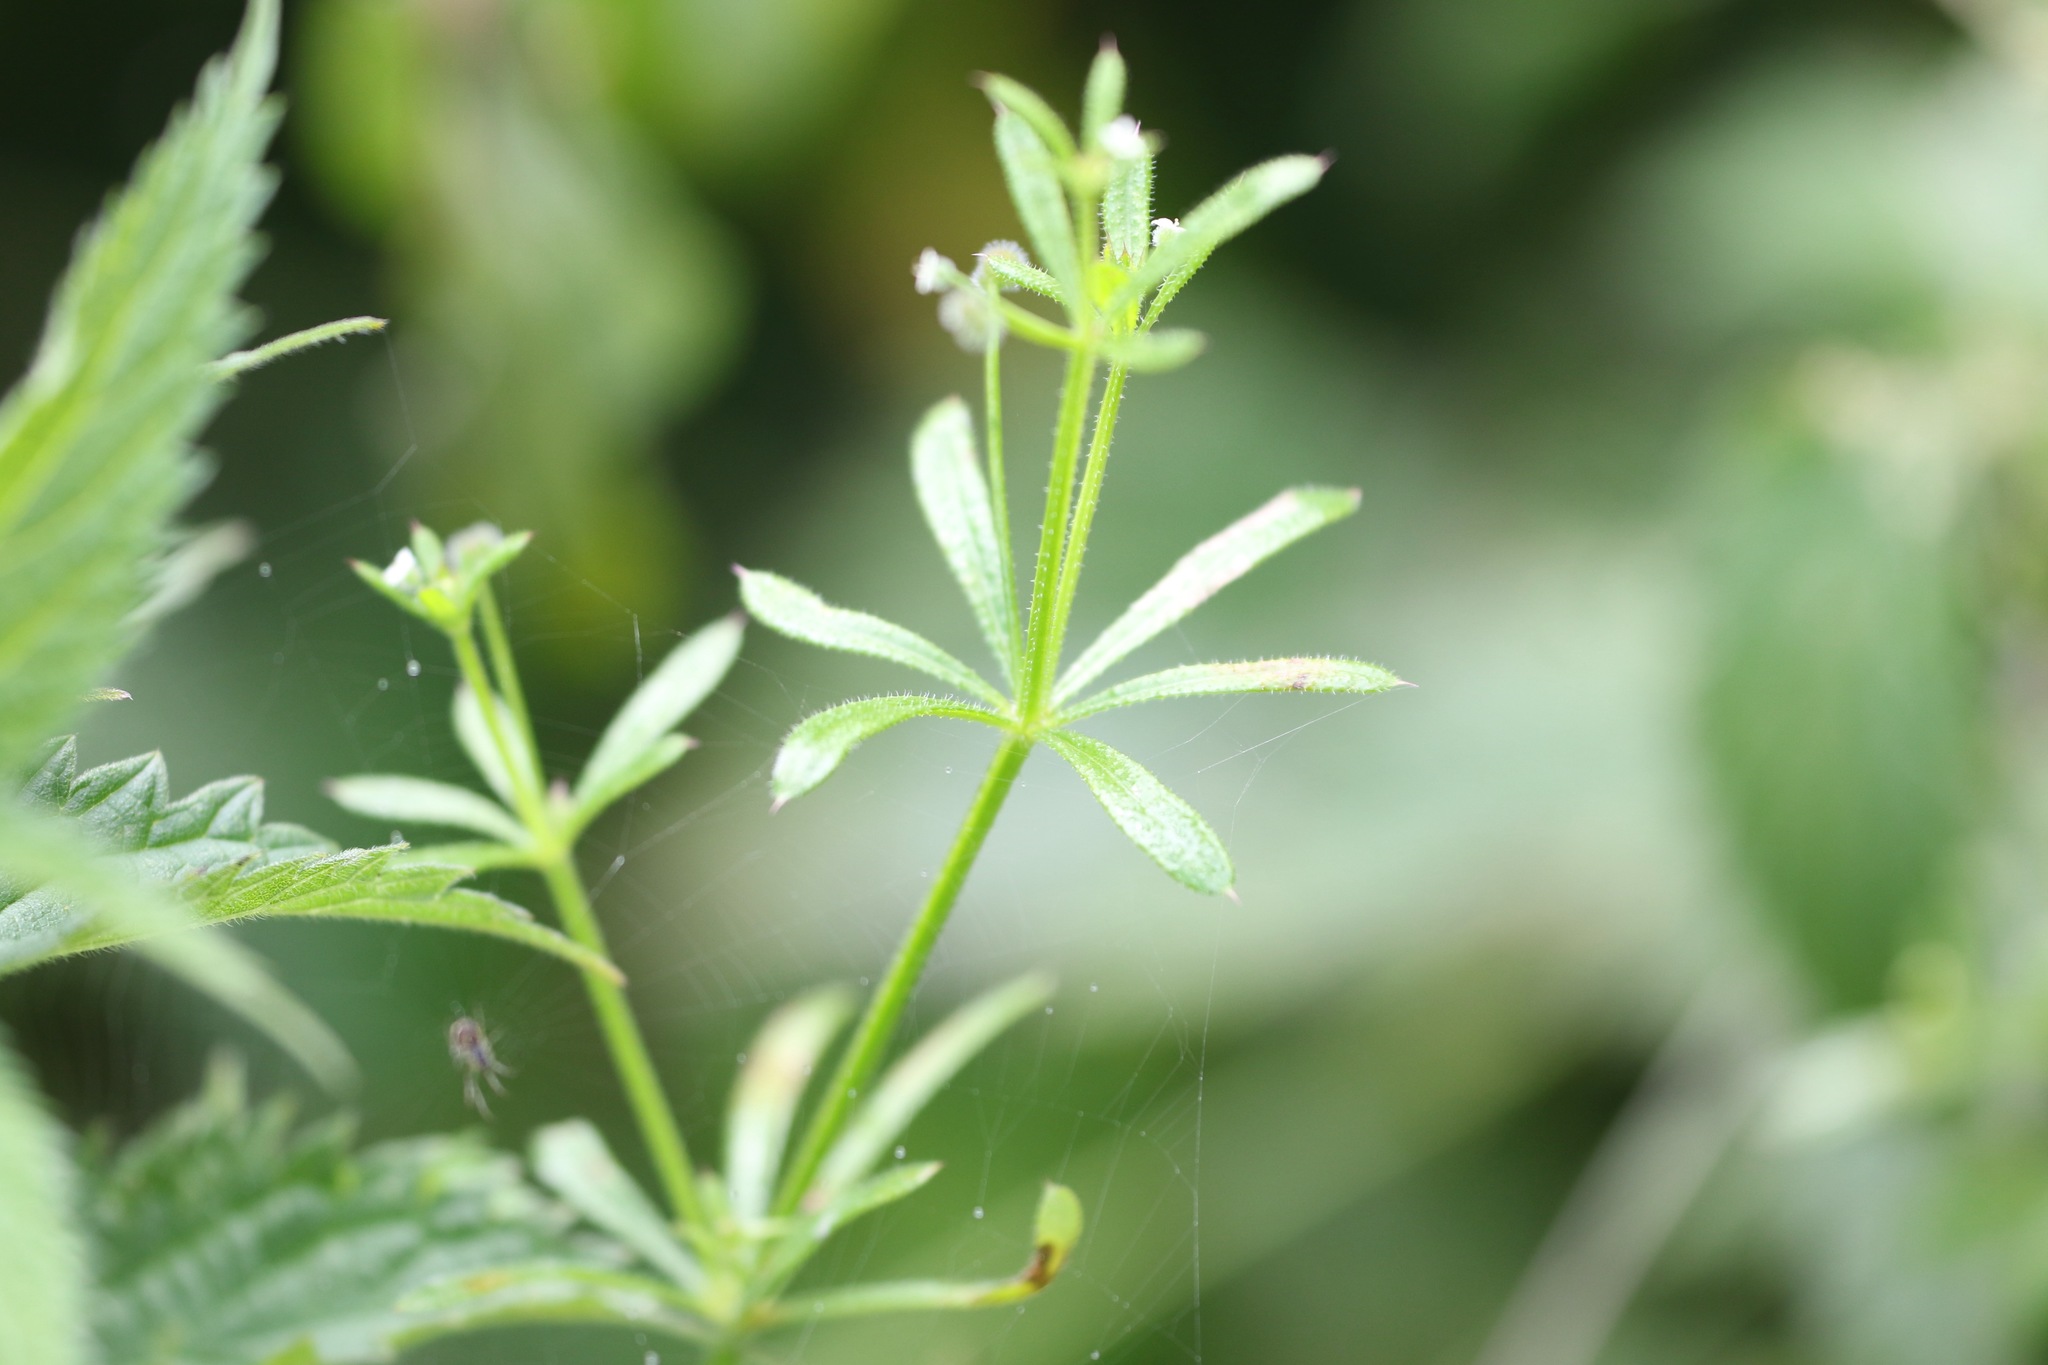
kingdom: Plantae
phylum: Tracheophyta
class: Magnoliopsida
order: Gentianales
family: Rubiaceae
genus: Galium
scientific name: Galium aparine
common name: Cleavers
